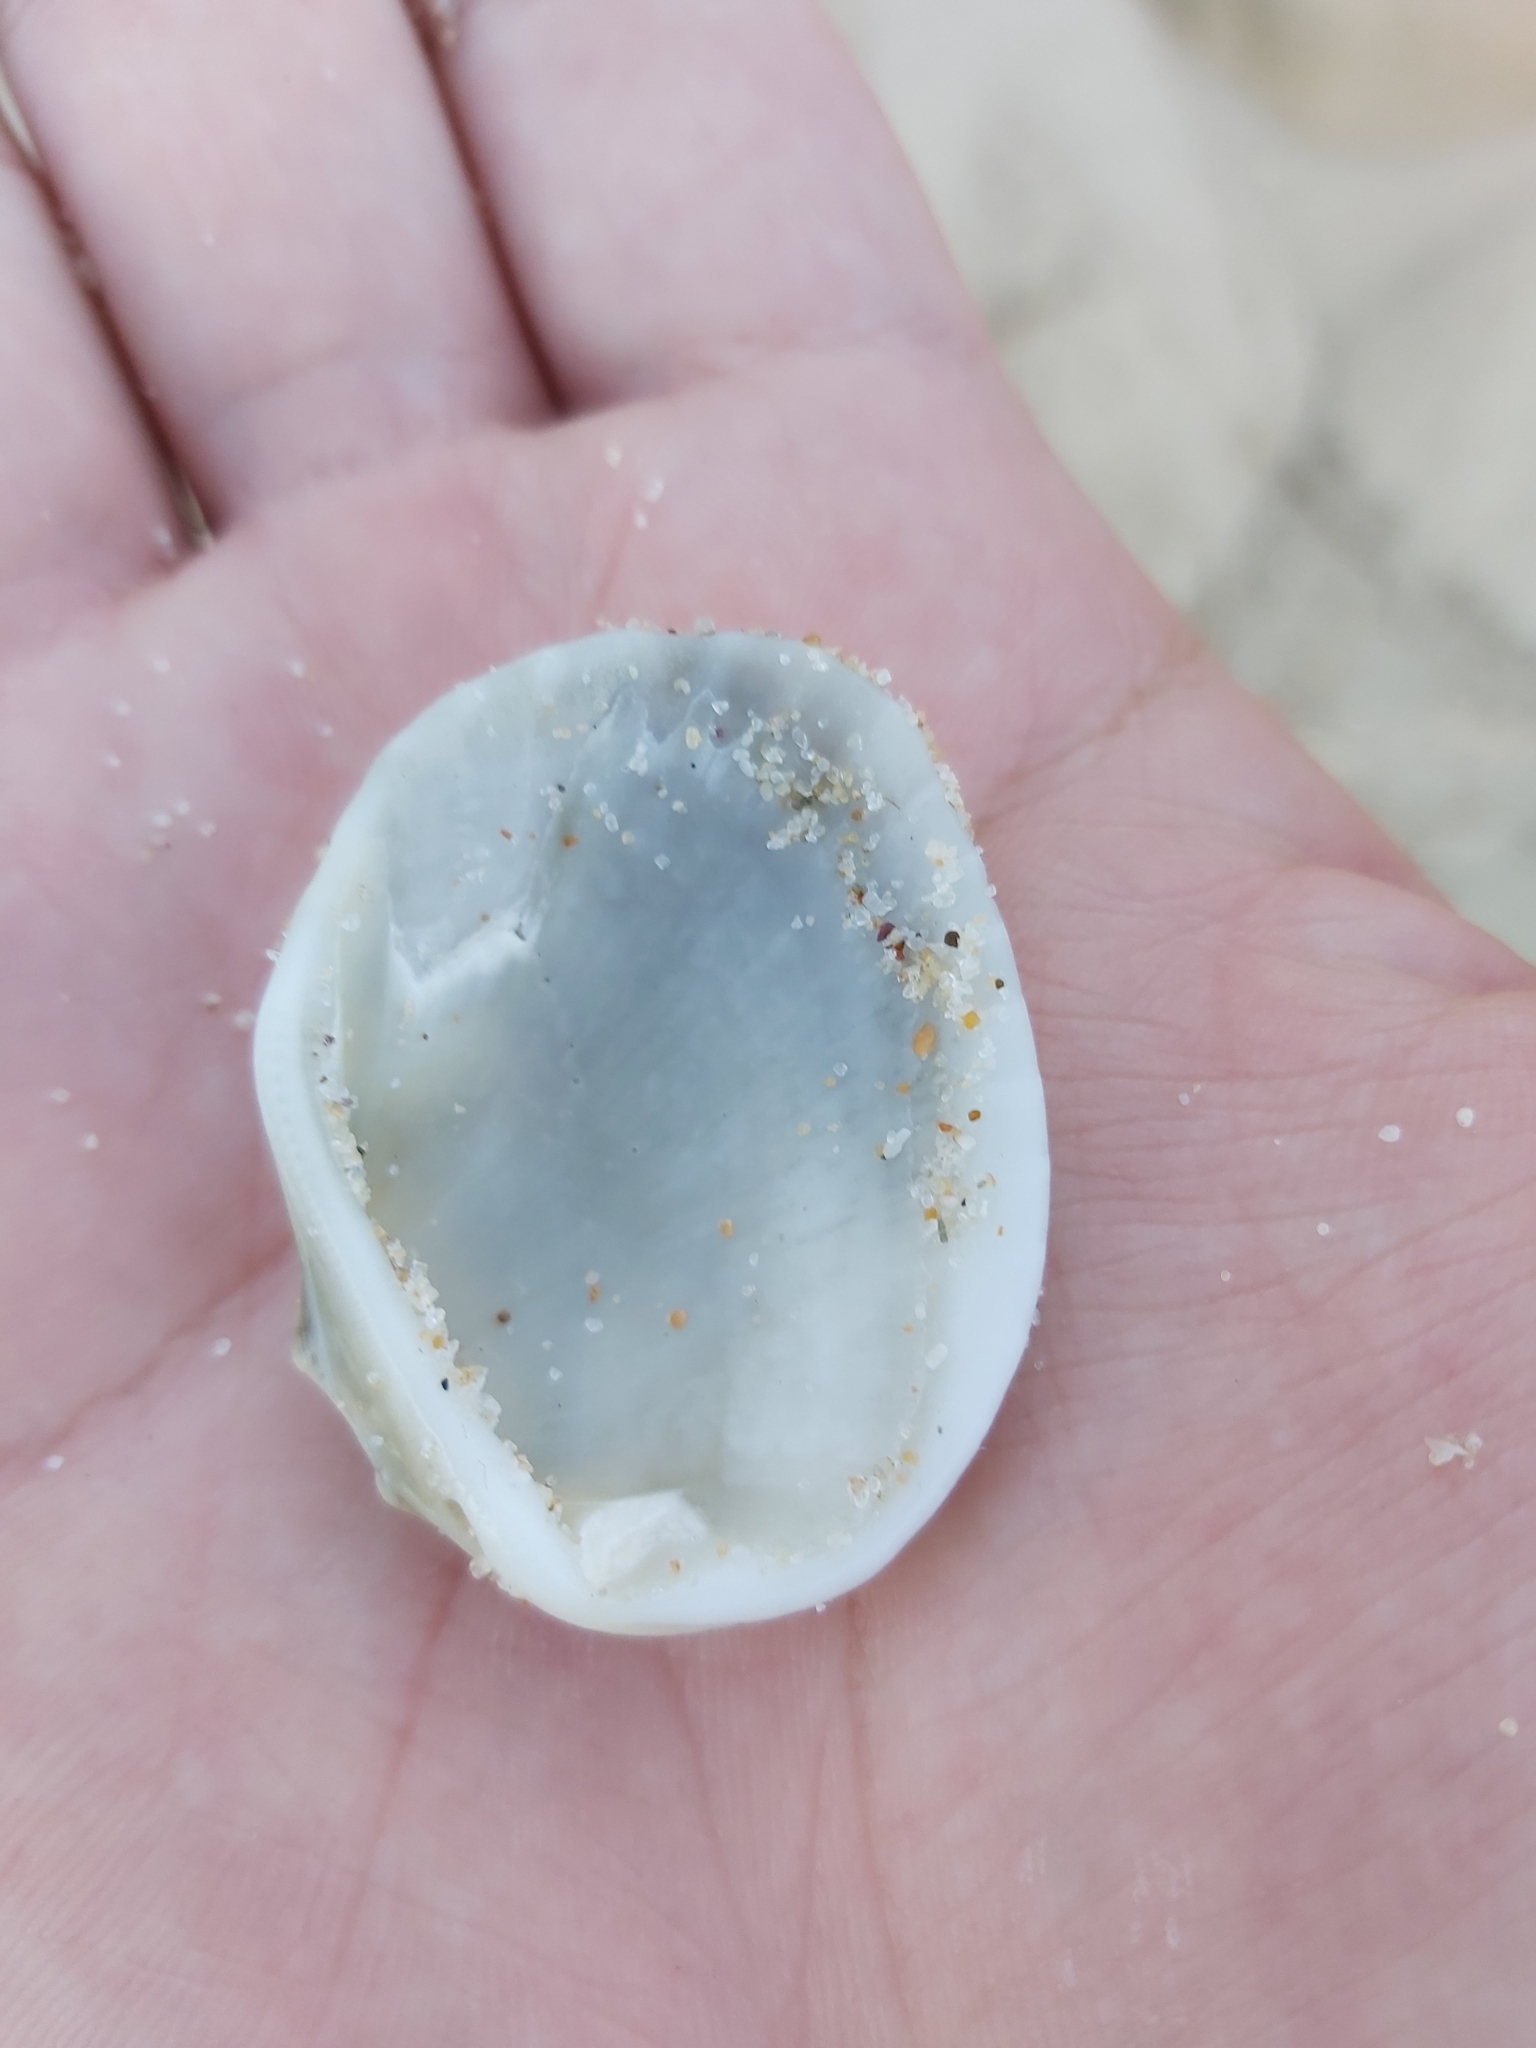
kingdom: Animalia
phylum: Mollusca
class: Bivalvia
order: Arcida
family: Arcidae
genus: Anadara
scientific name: Anadara trapezia
